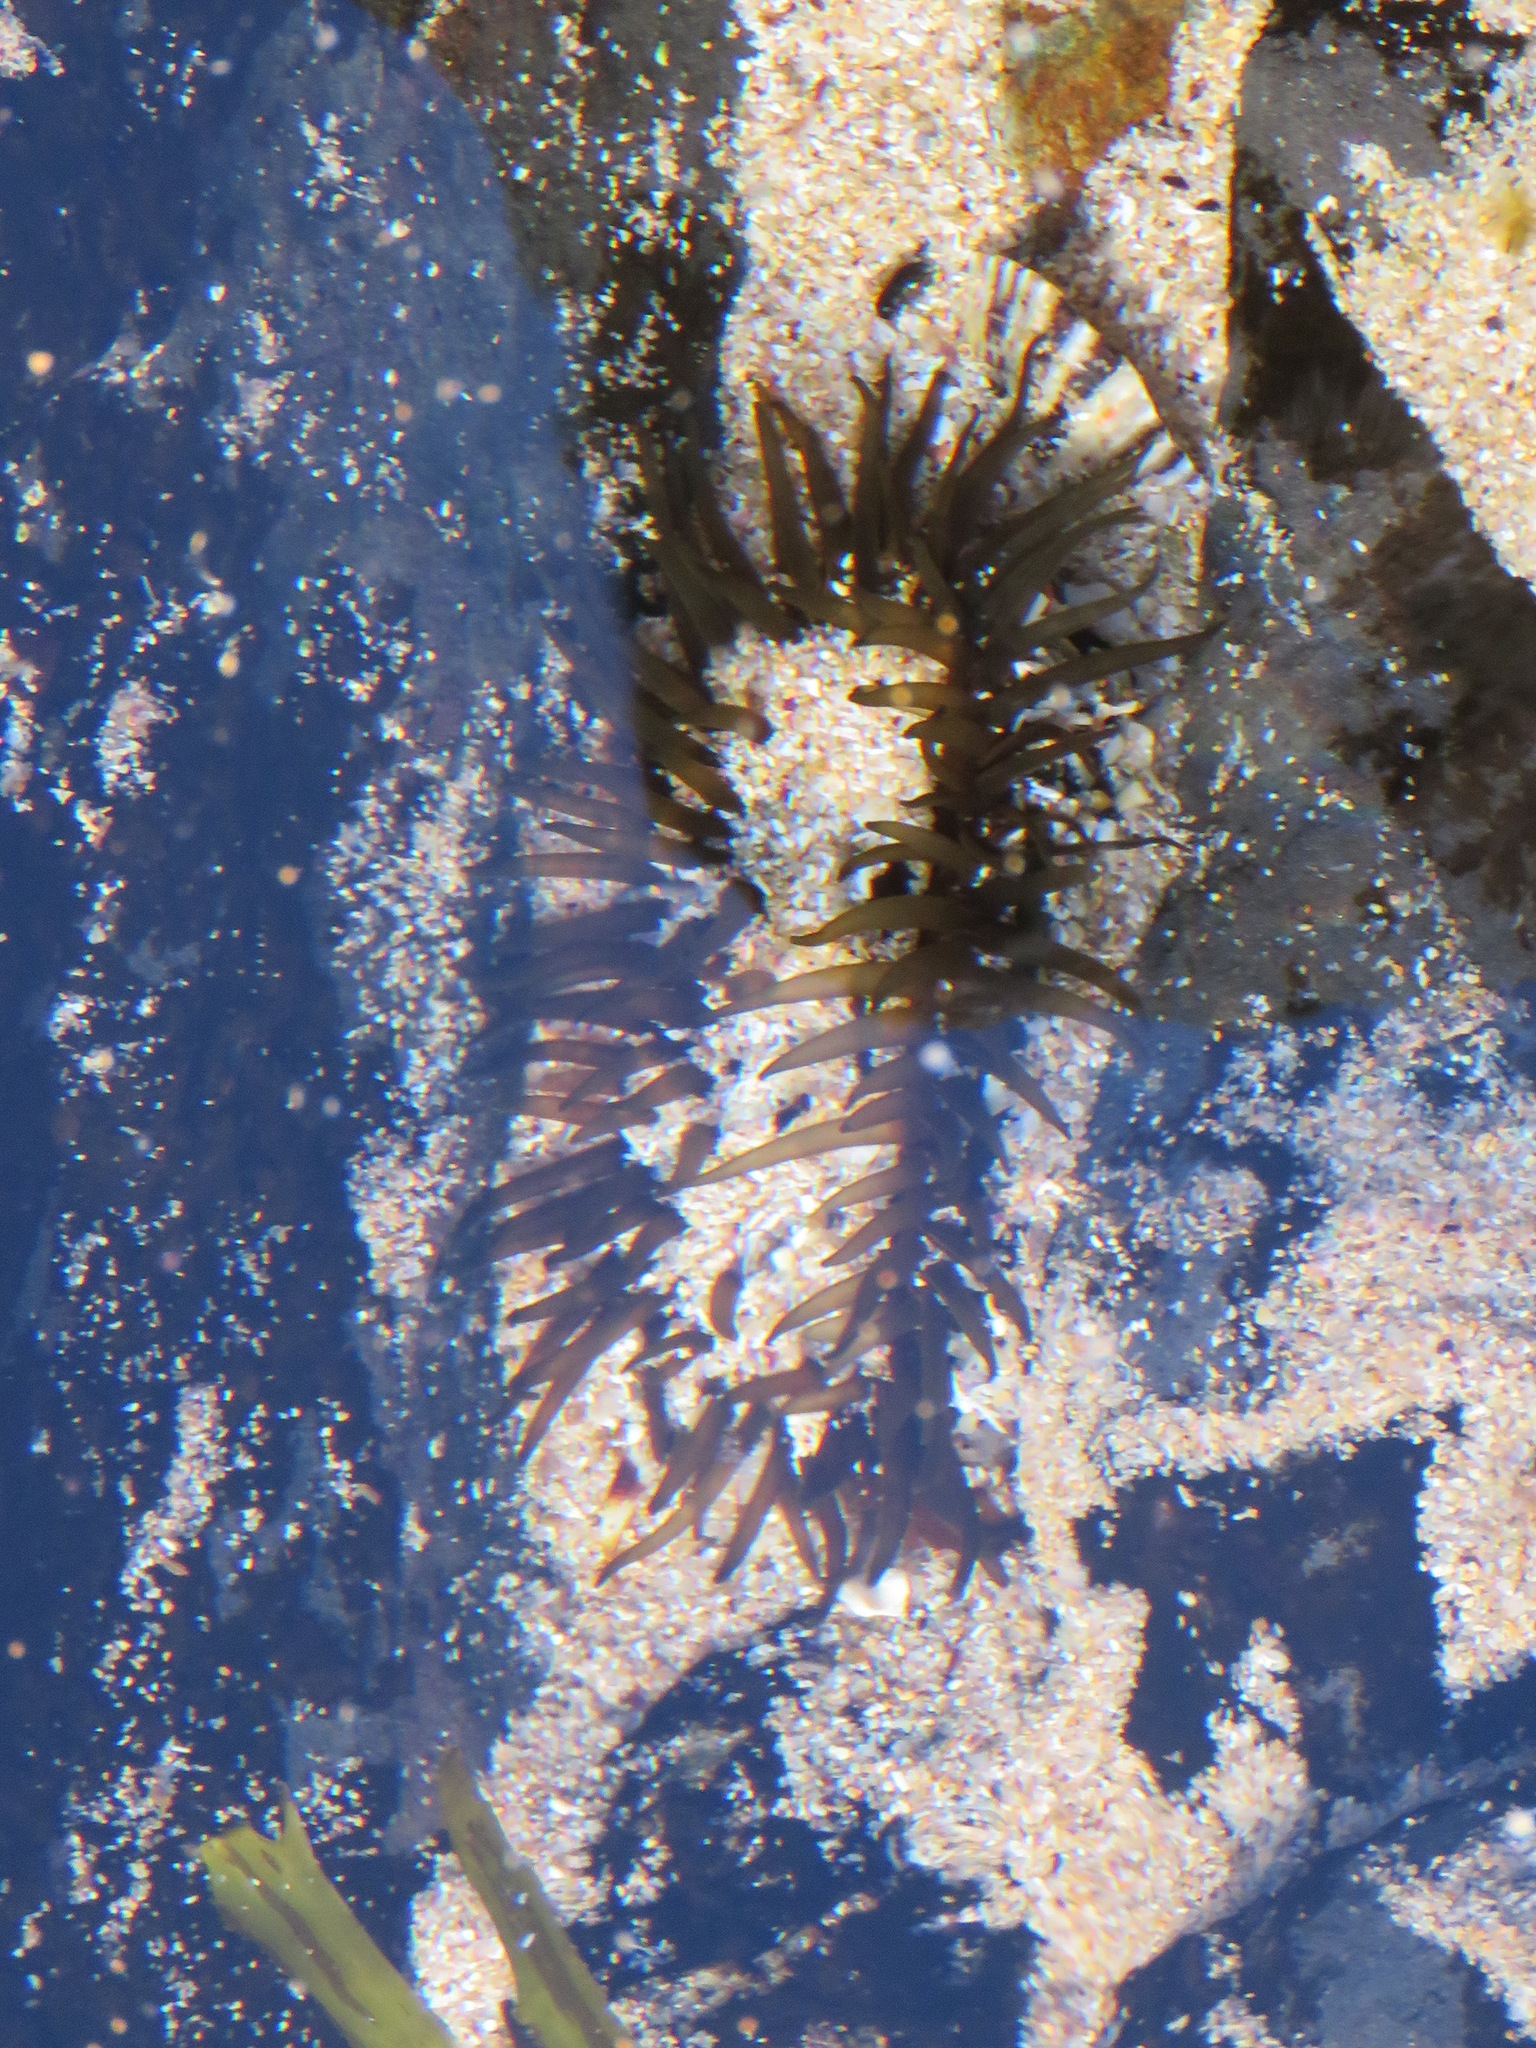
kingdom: Animalia
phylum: Cnidaria
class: Anthozoa
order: Actiniaria
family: Actiniidae
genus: Aulactinia
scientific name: Aulactinia veratra
